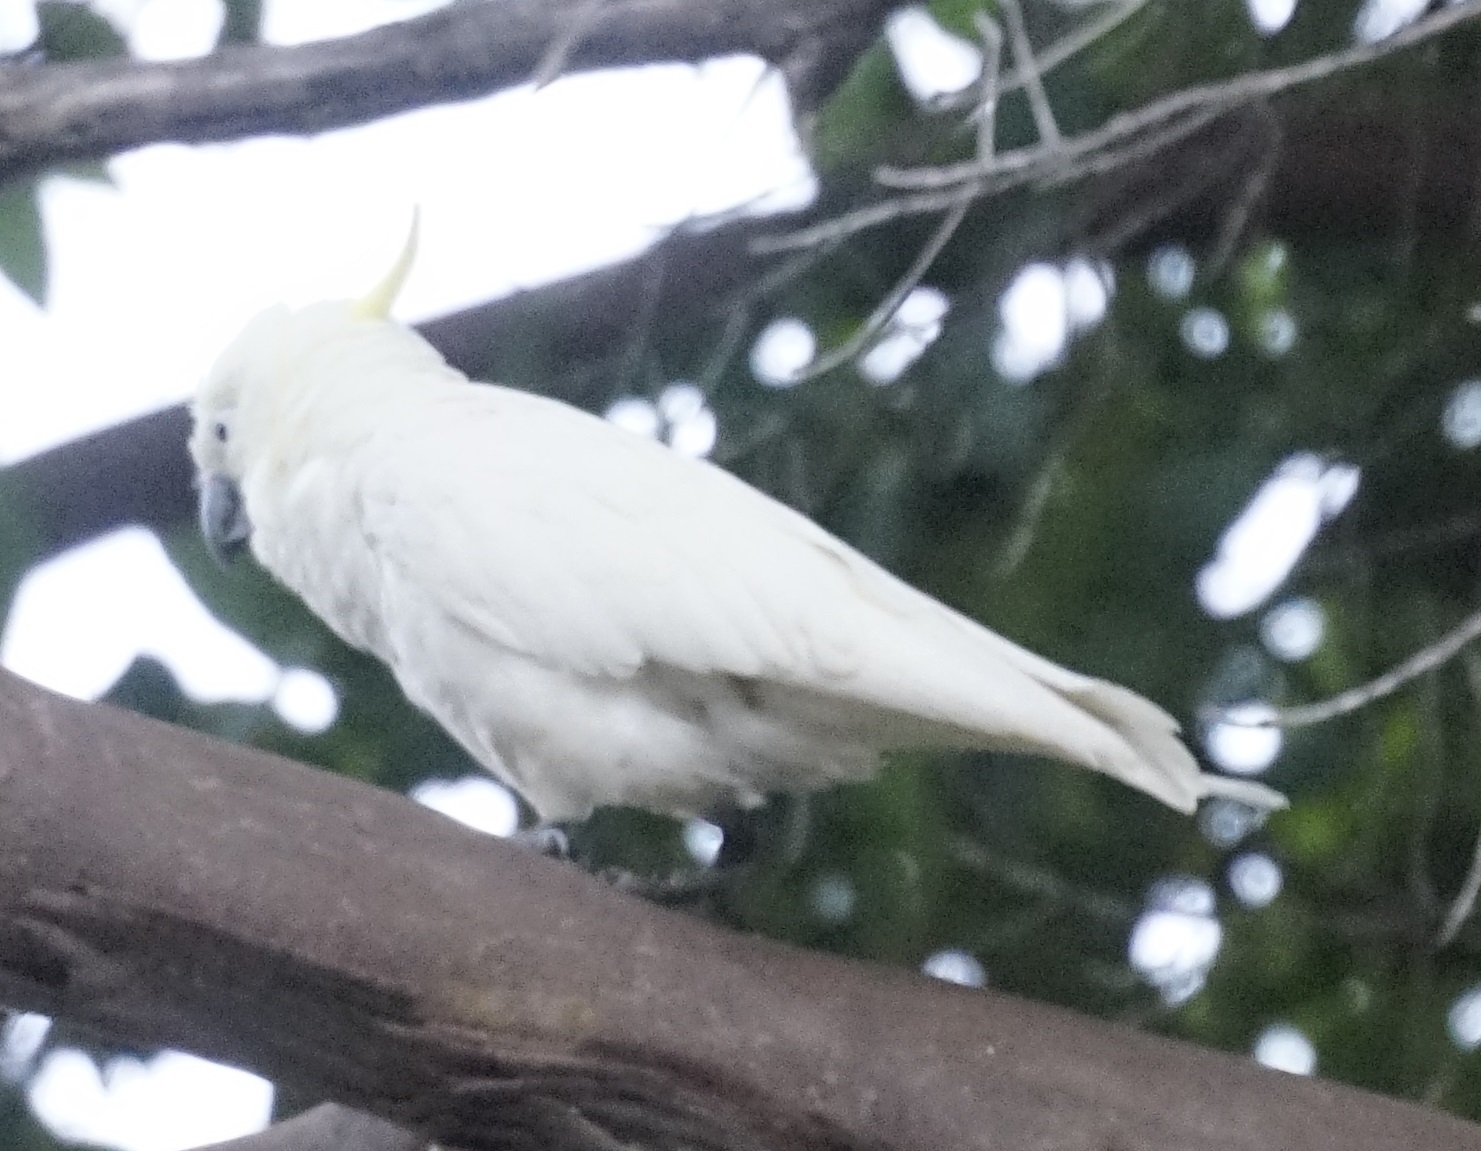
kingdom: Animalia
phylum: Chordata
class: Aves
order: Psittaciformes
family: Psittacidae
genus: Cacatua
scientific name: Cacatua galerita
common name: Sulphur-crested cockatoo
